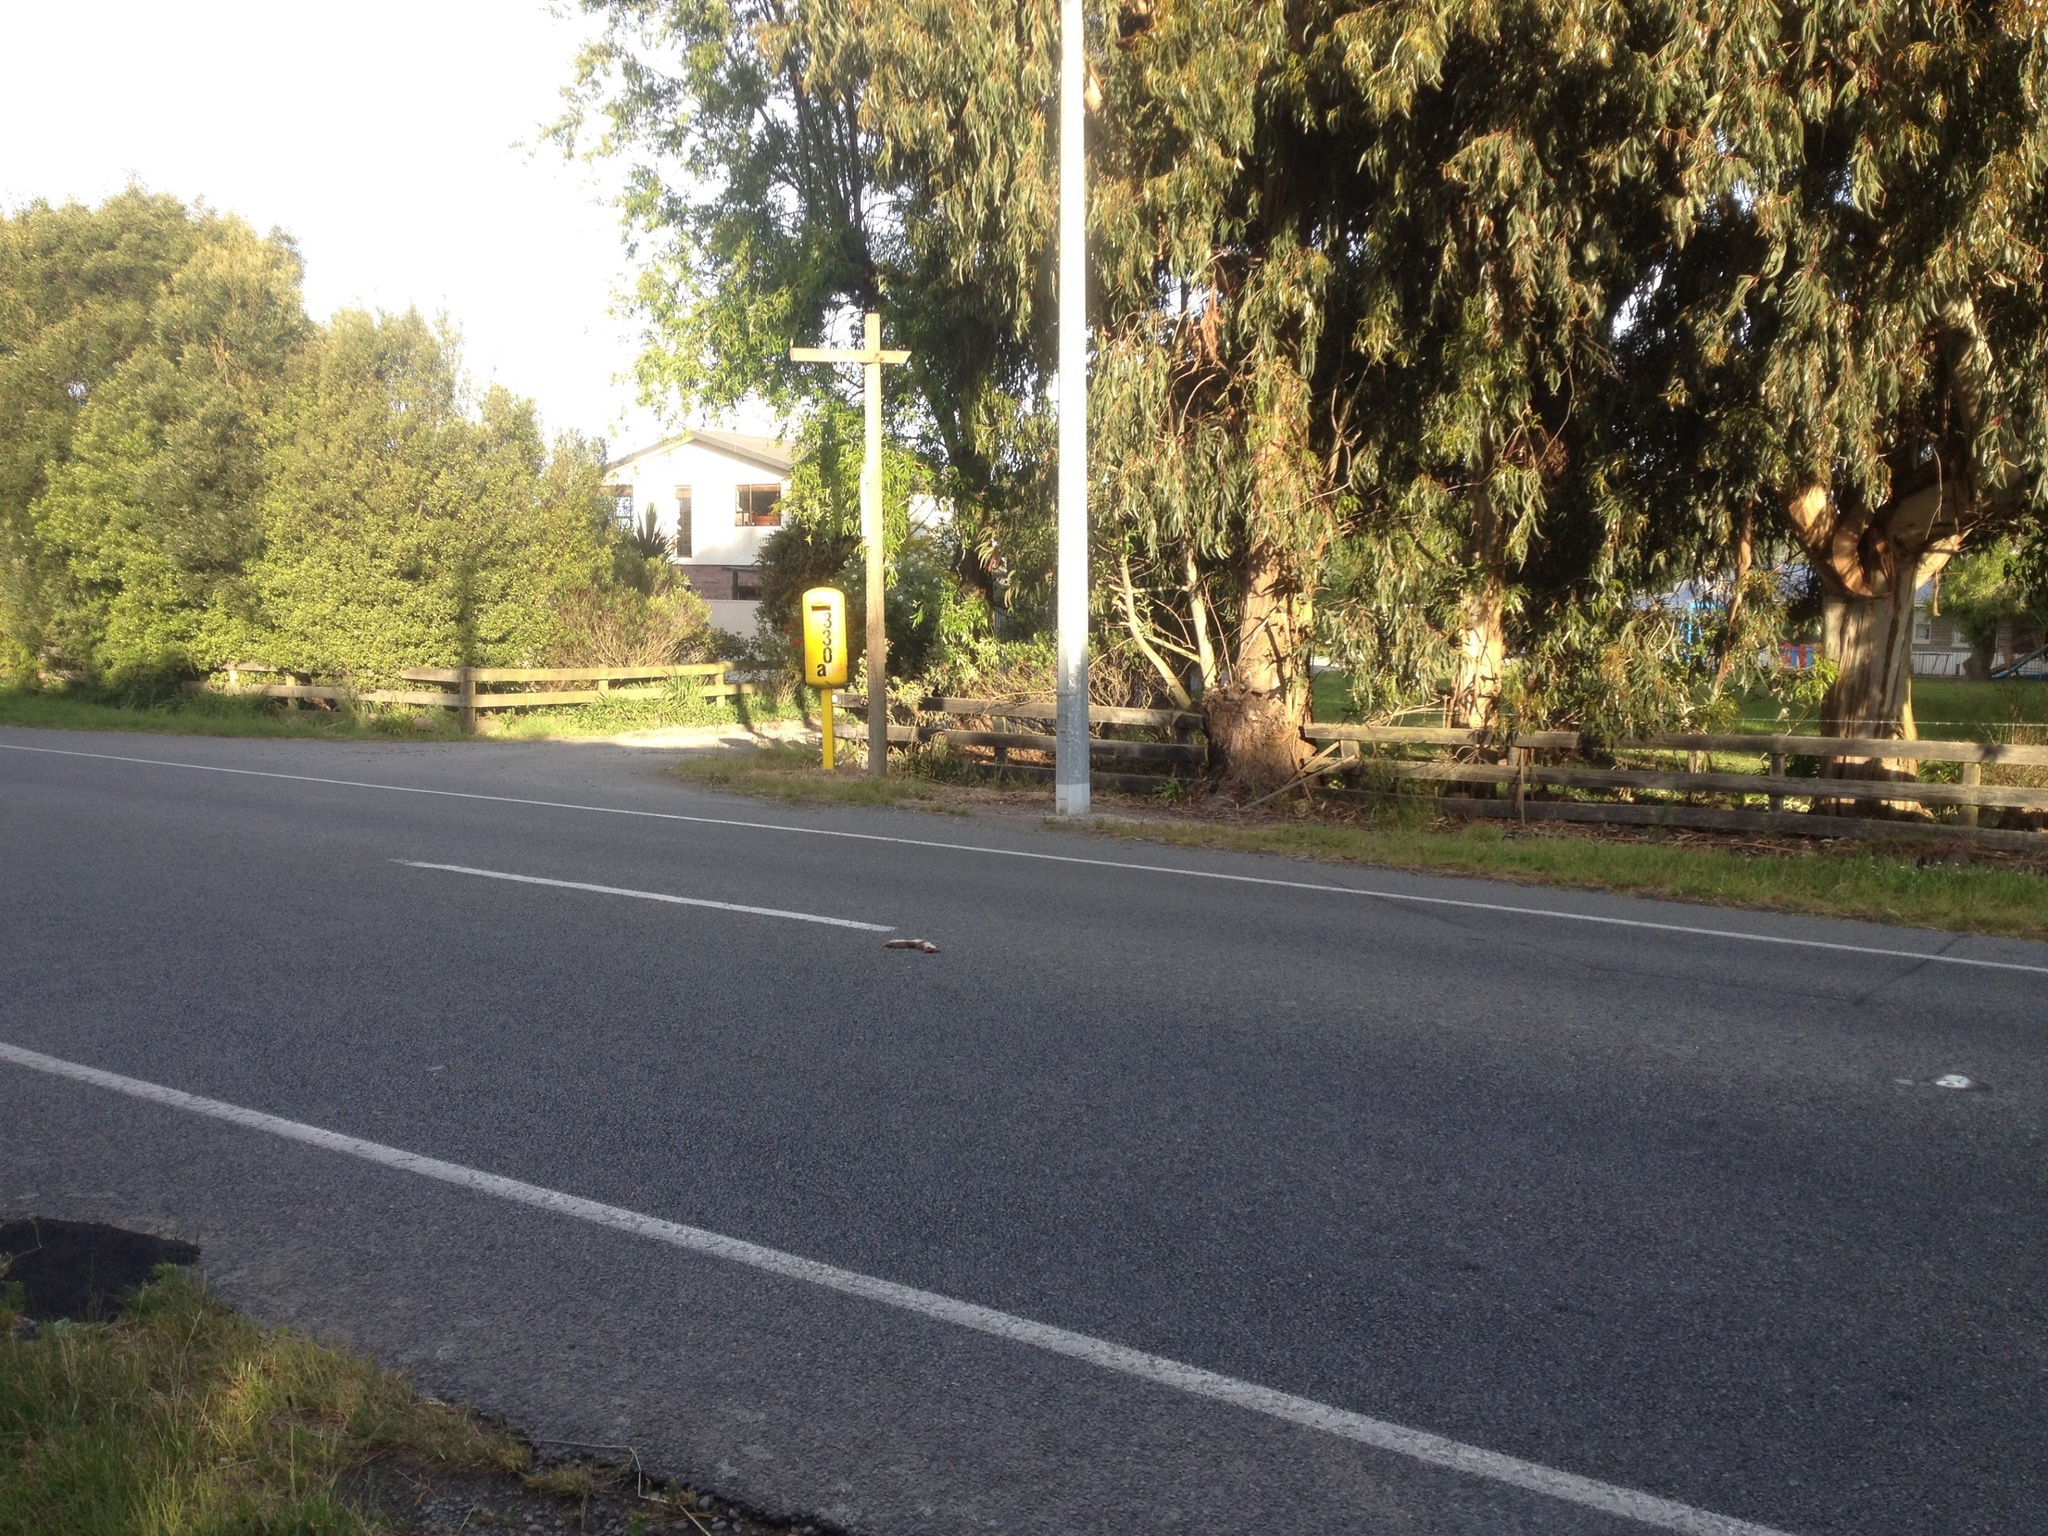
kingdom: Animalia
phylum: Chordata
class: Mammalia
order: Carnivora
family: Mustelidae
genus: Mustela
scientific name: Mustela nivalis
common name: Least weasel
